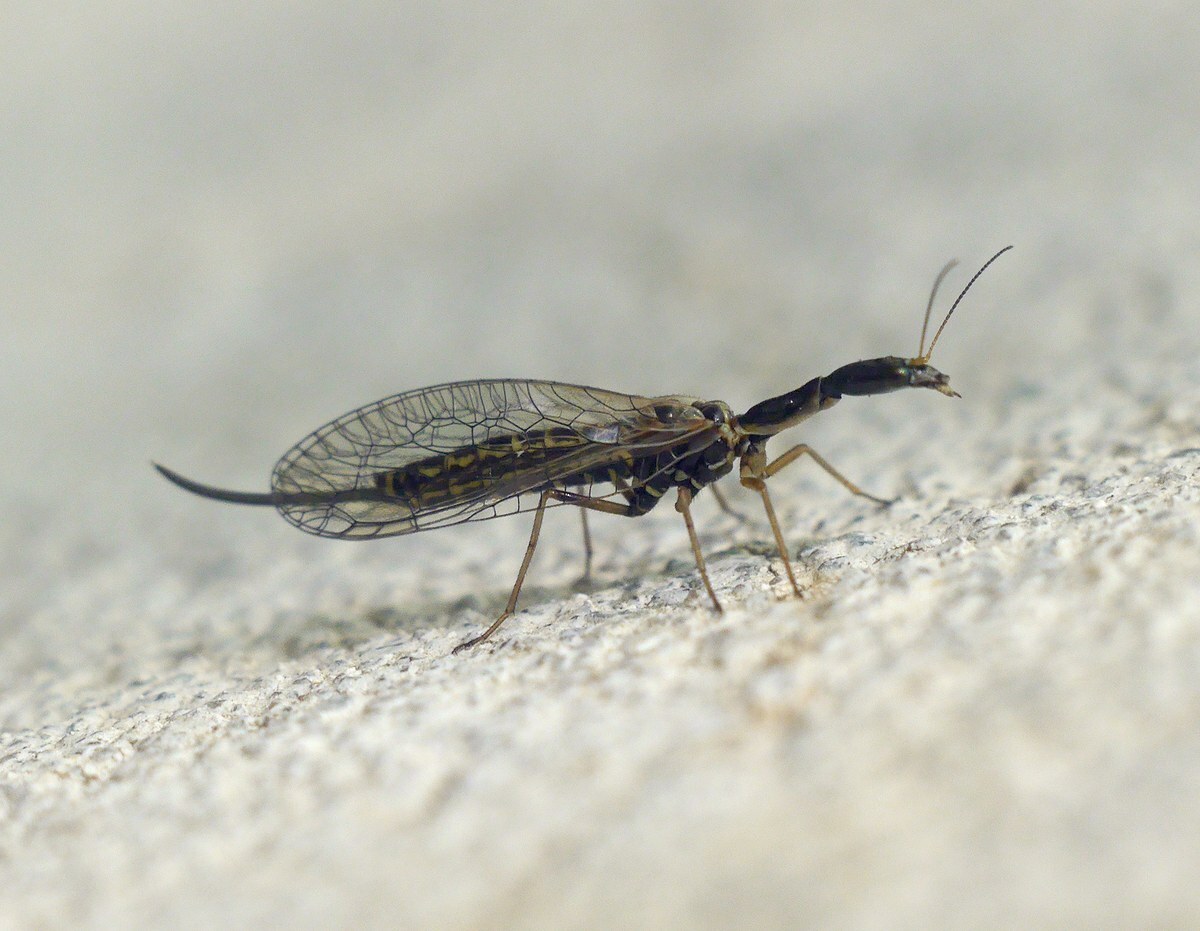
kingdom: Animalia
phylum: Arthropoda
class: Insecta
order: Raphidioptera
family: Raphidiidae
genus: Xanthostigma
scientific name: Xanthostigma xanthostigma
